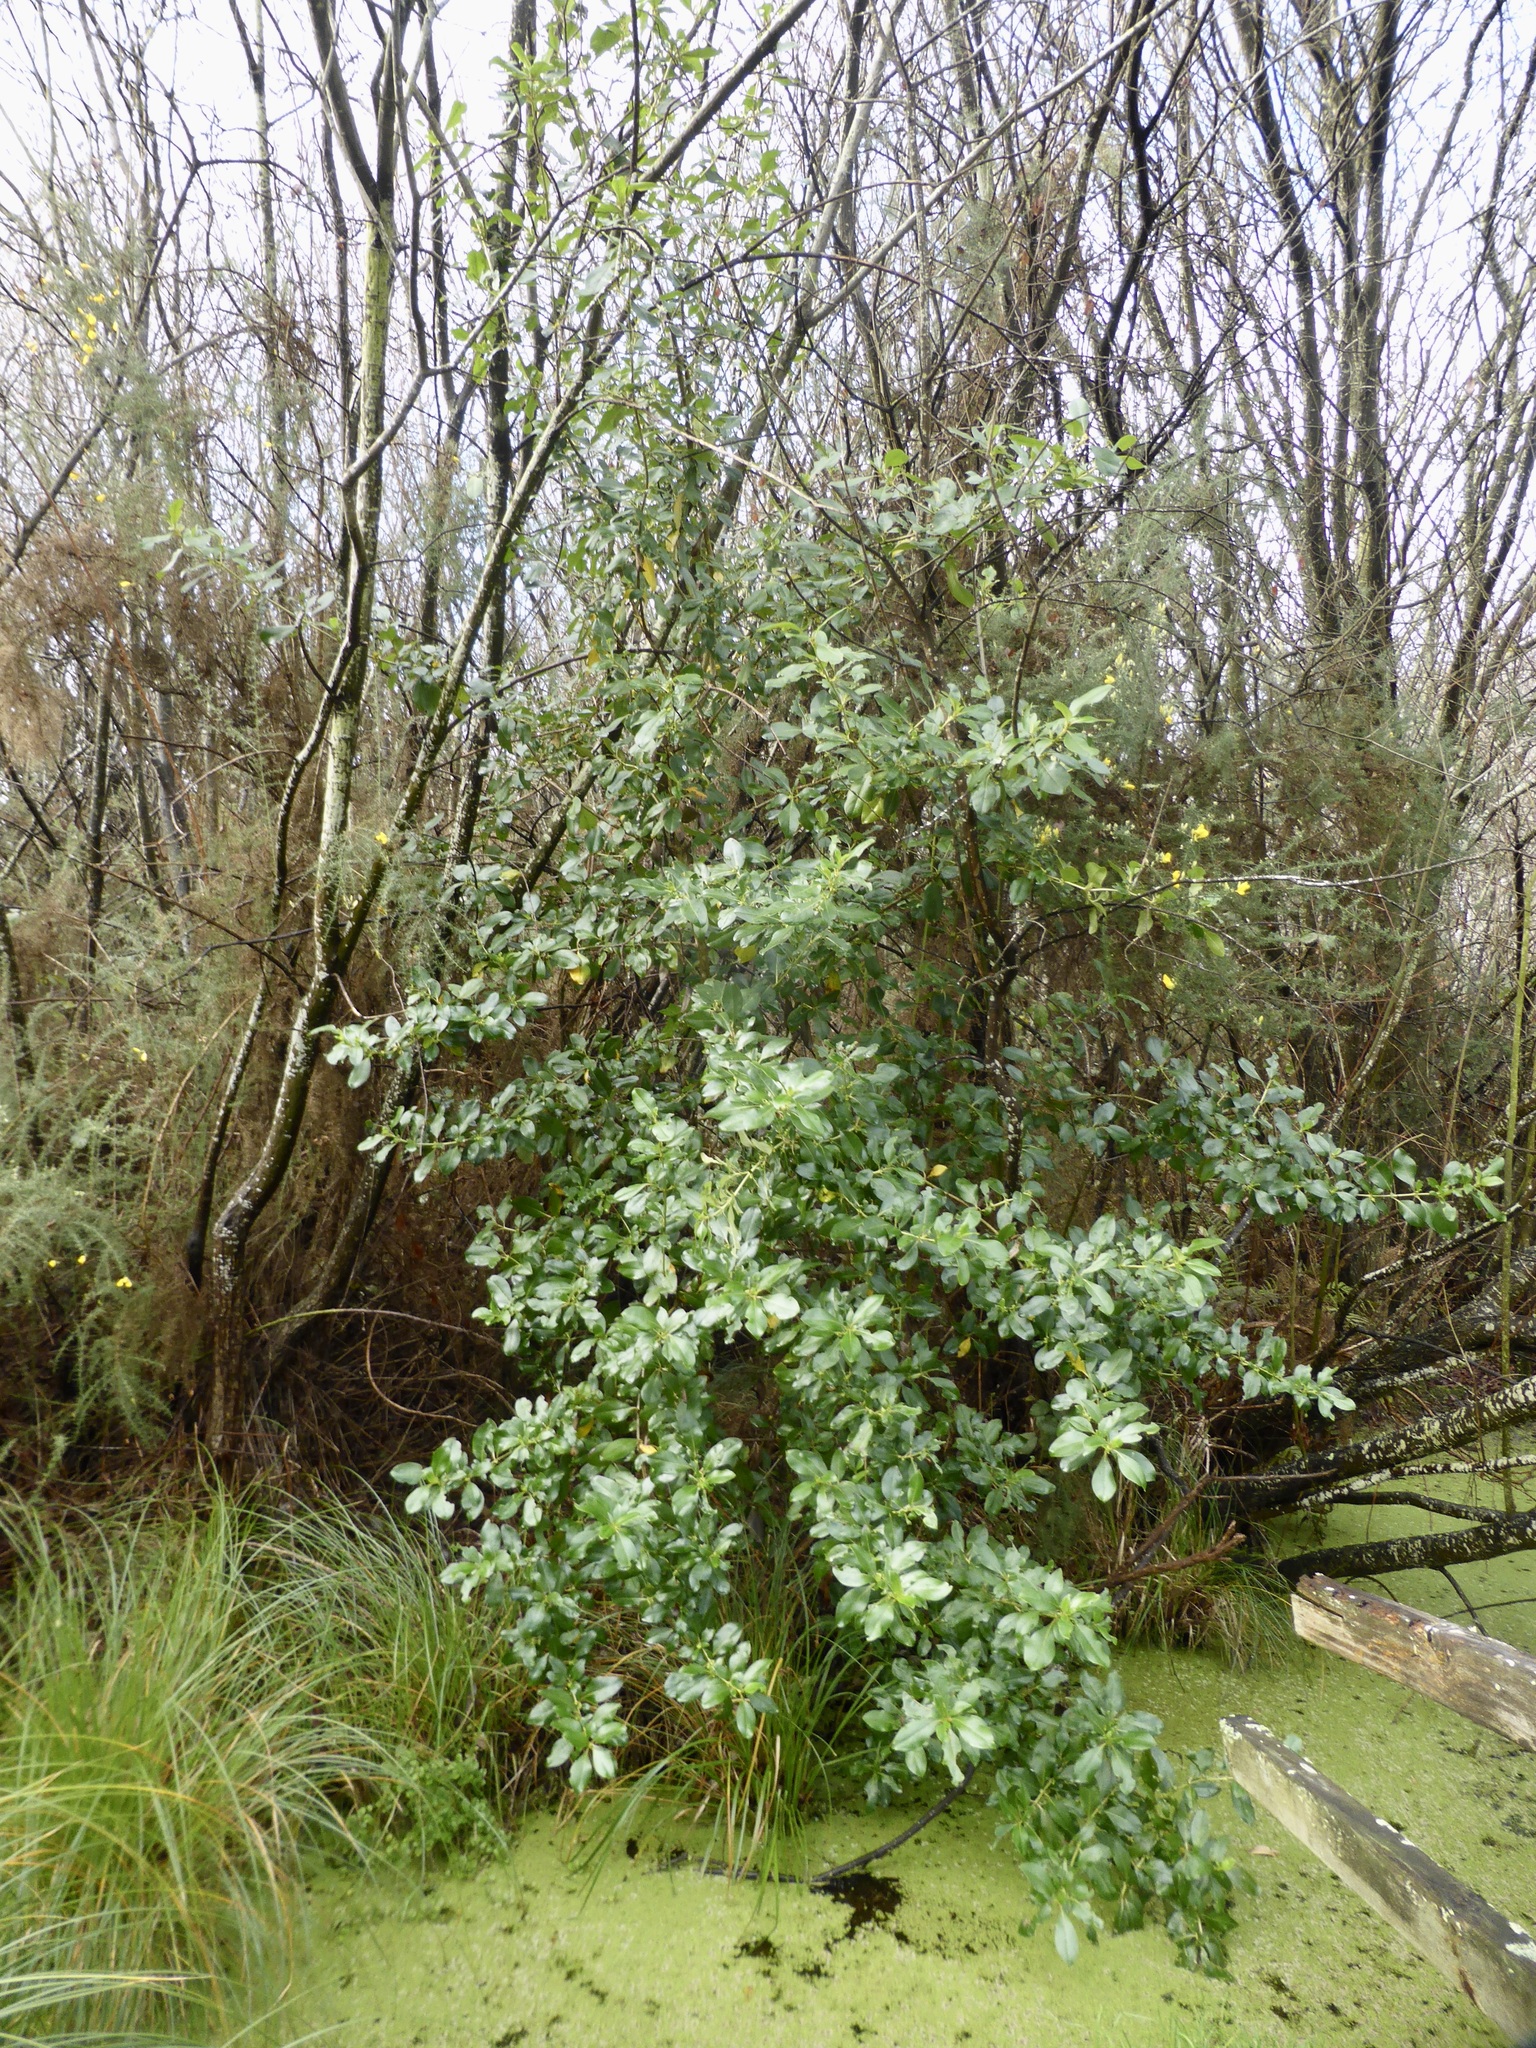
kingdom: Plantae
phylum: Tracheophyta
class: Magnoliopsida
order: Gentianales
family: Rubiaceae
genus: Coprosma
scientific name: Coprosma robusta
